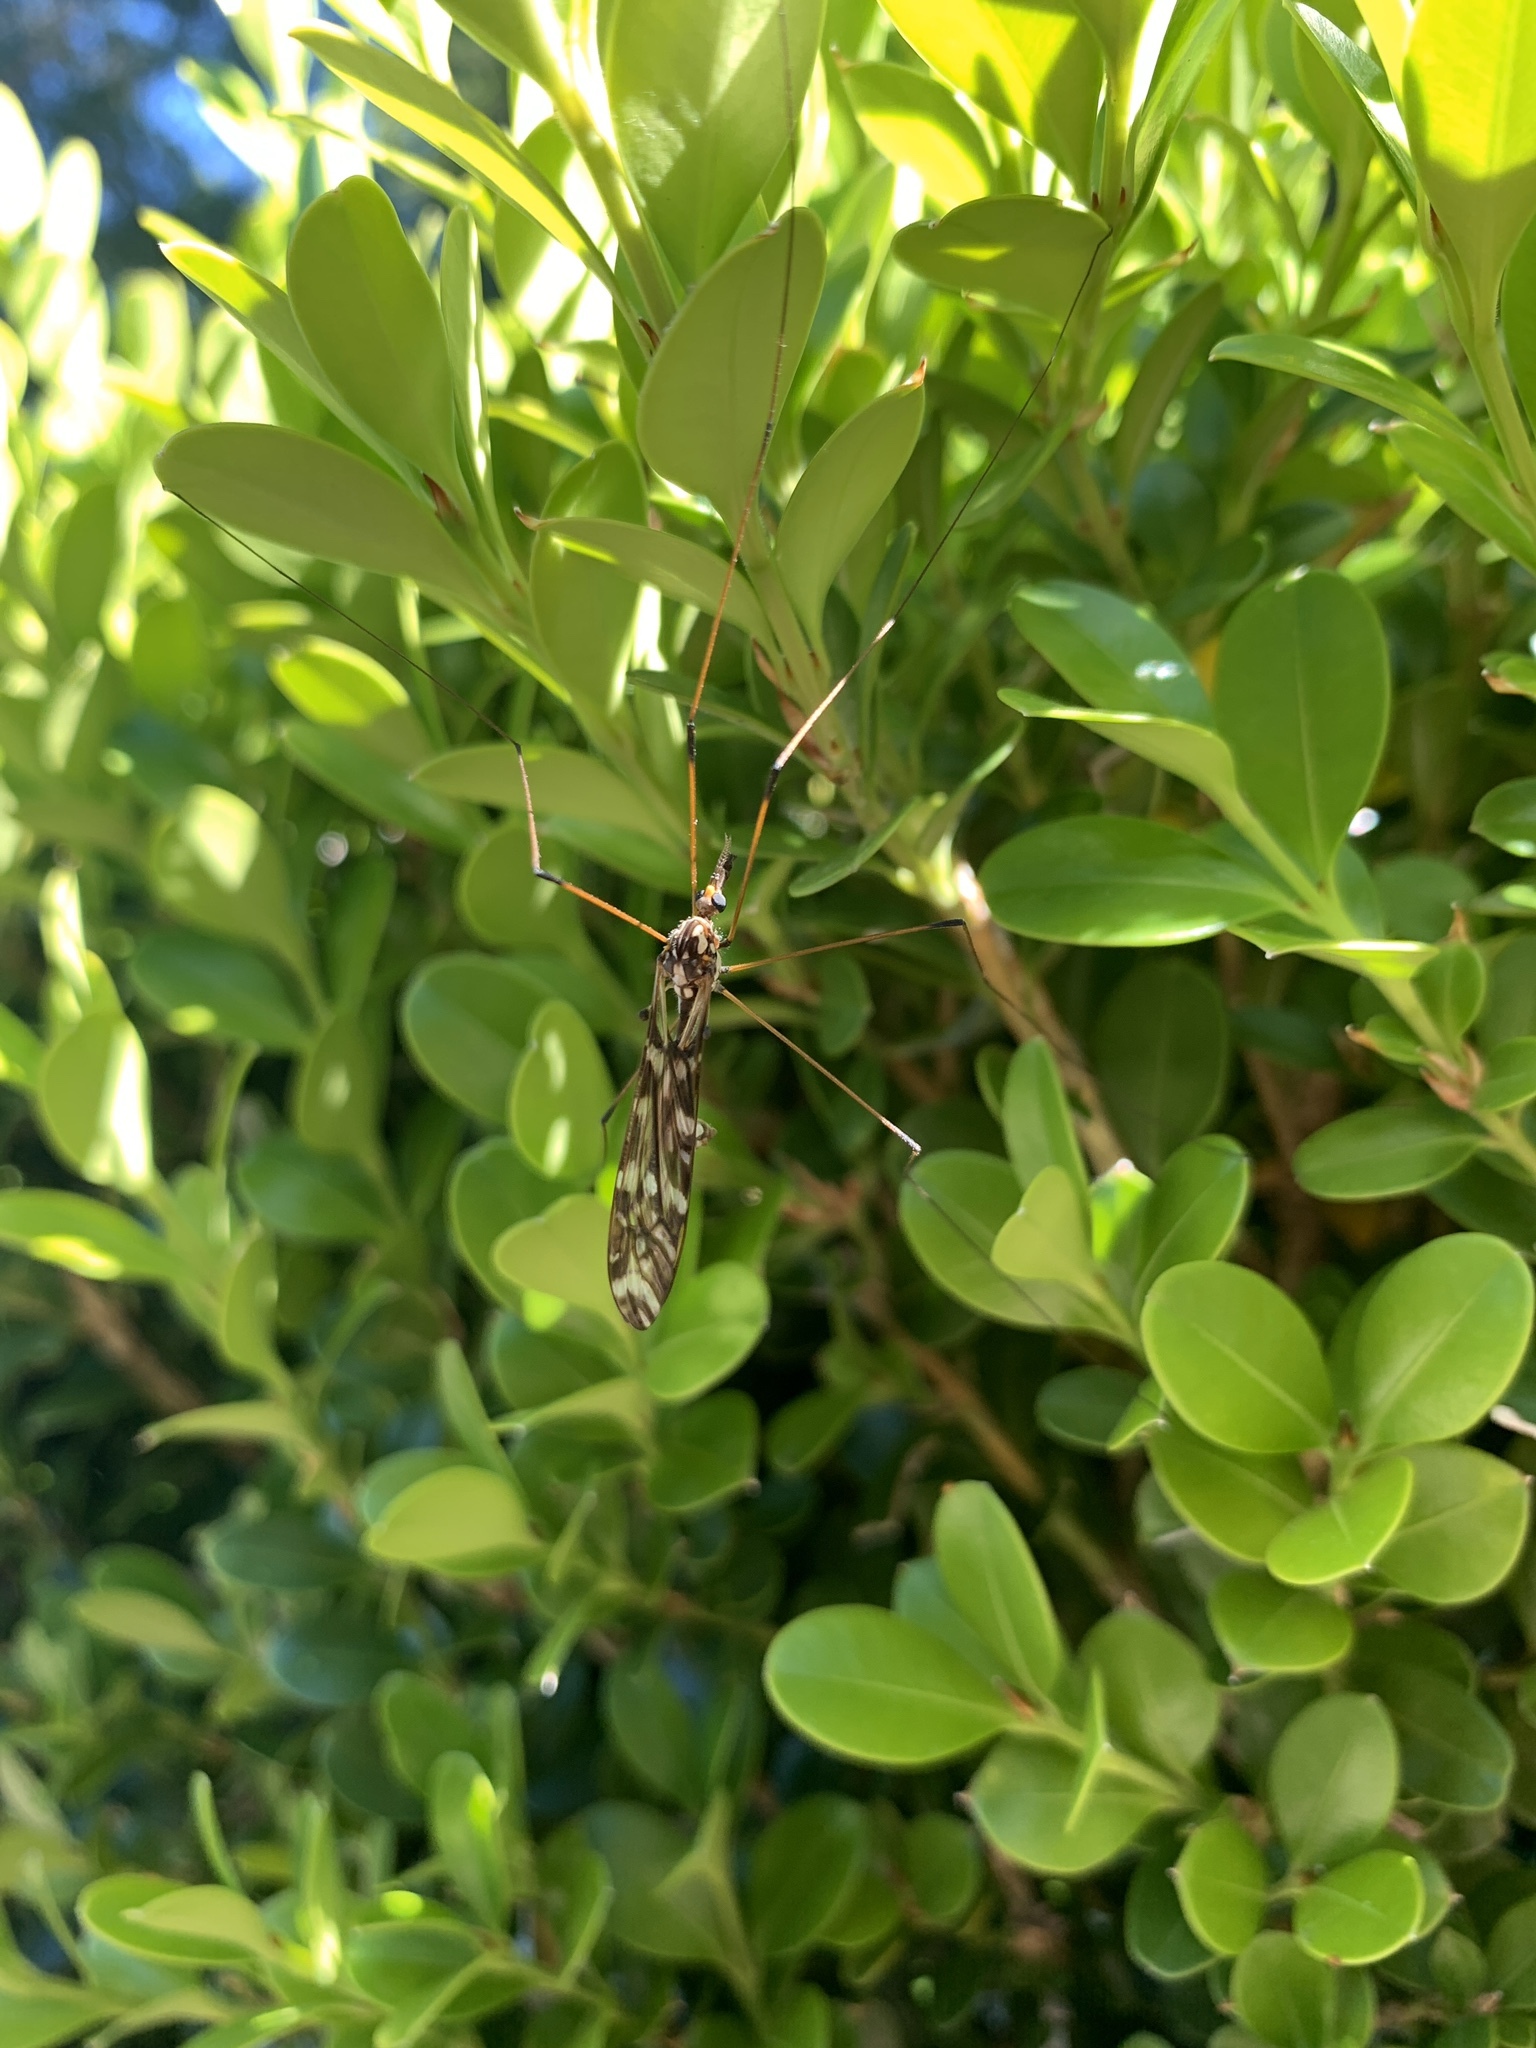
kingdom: Animalia
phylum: Arthropoda
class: Insecta
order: Diptera
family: Tipulidae
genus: Ischnotoma
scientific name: Ischnotoma eburnea
